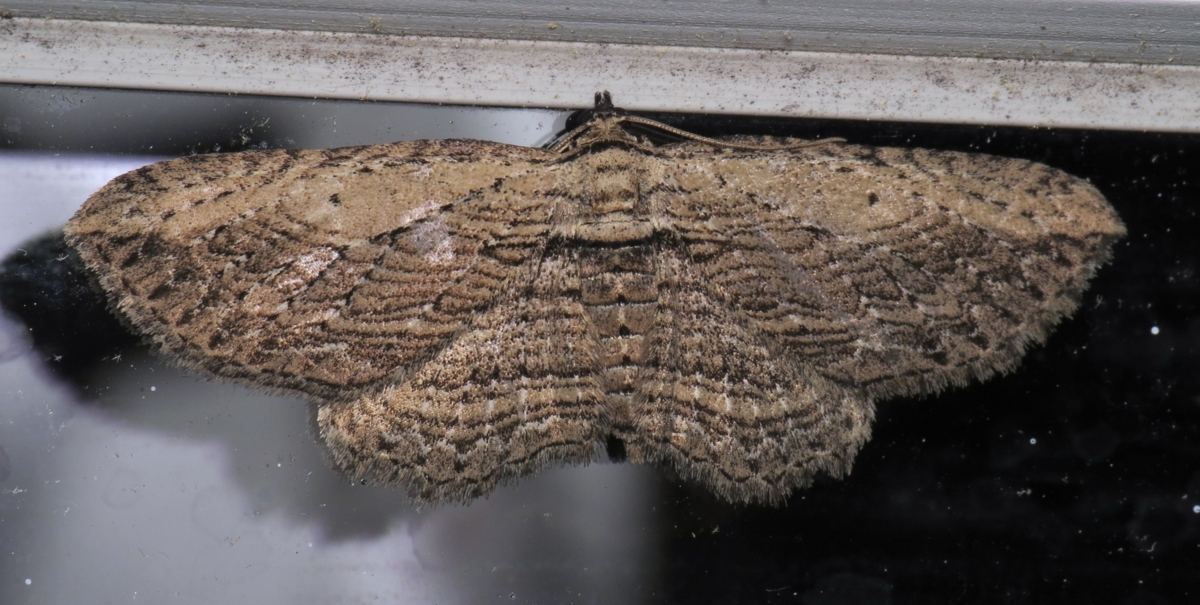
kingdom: Animalia
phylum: Arthropoda
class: Insecta
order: Lepidoptera
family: Geometridae
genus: Horisme
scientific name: Horisme intestinata
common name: Brown bark carpet
